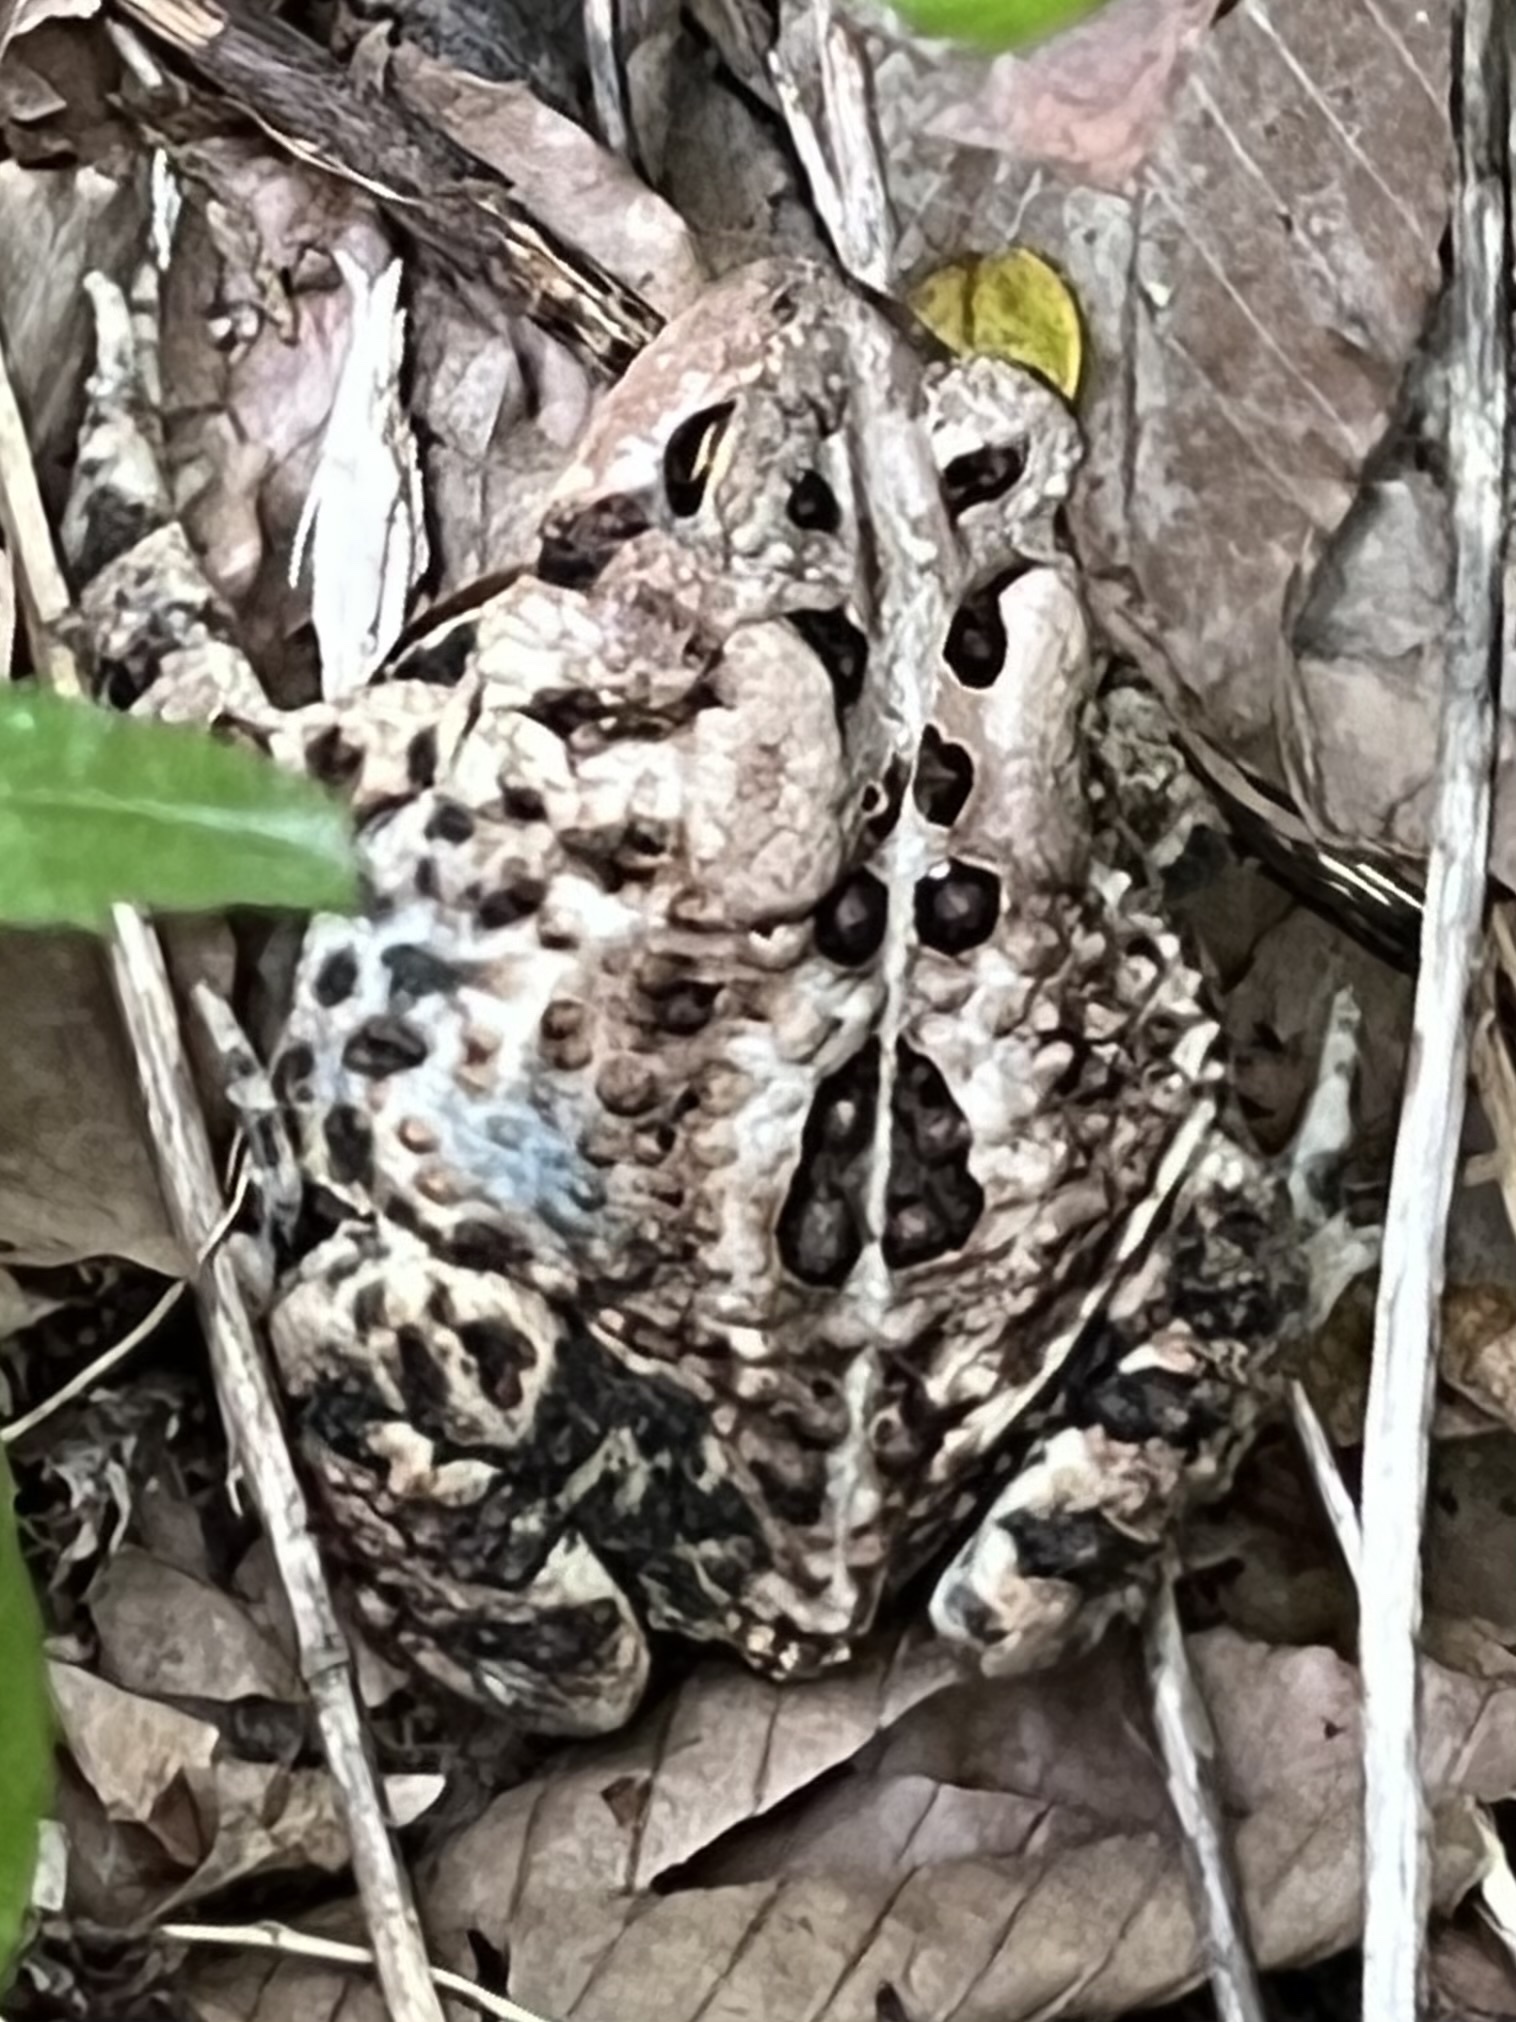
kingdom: Animalia
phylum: Chordata
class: Amphibia
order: Anura
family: Bufonidae
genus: Anaxyrus
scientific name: Anaxyrus americanus
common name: American toad
